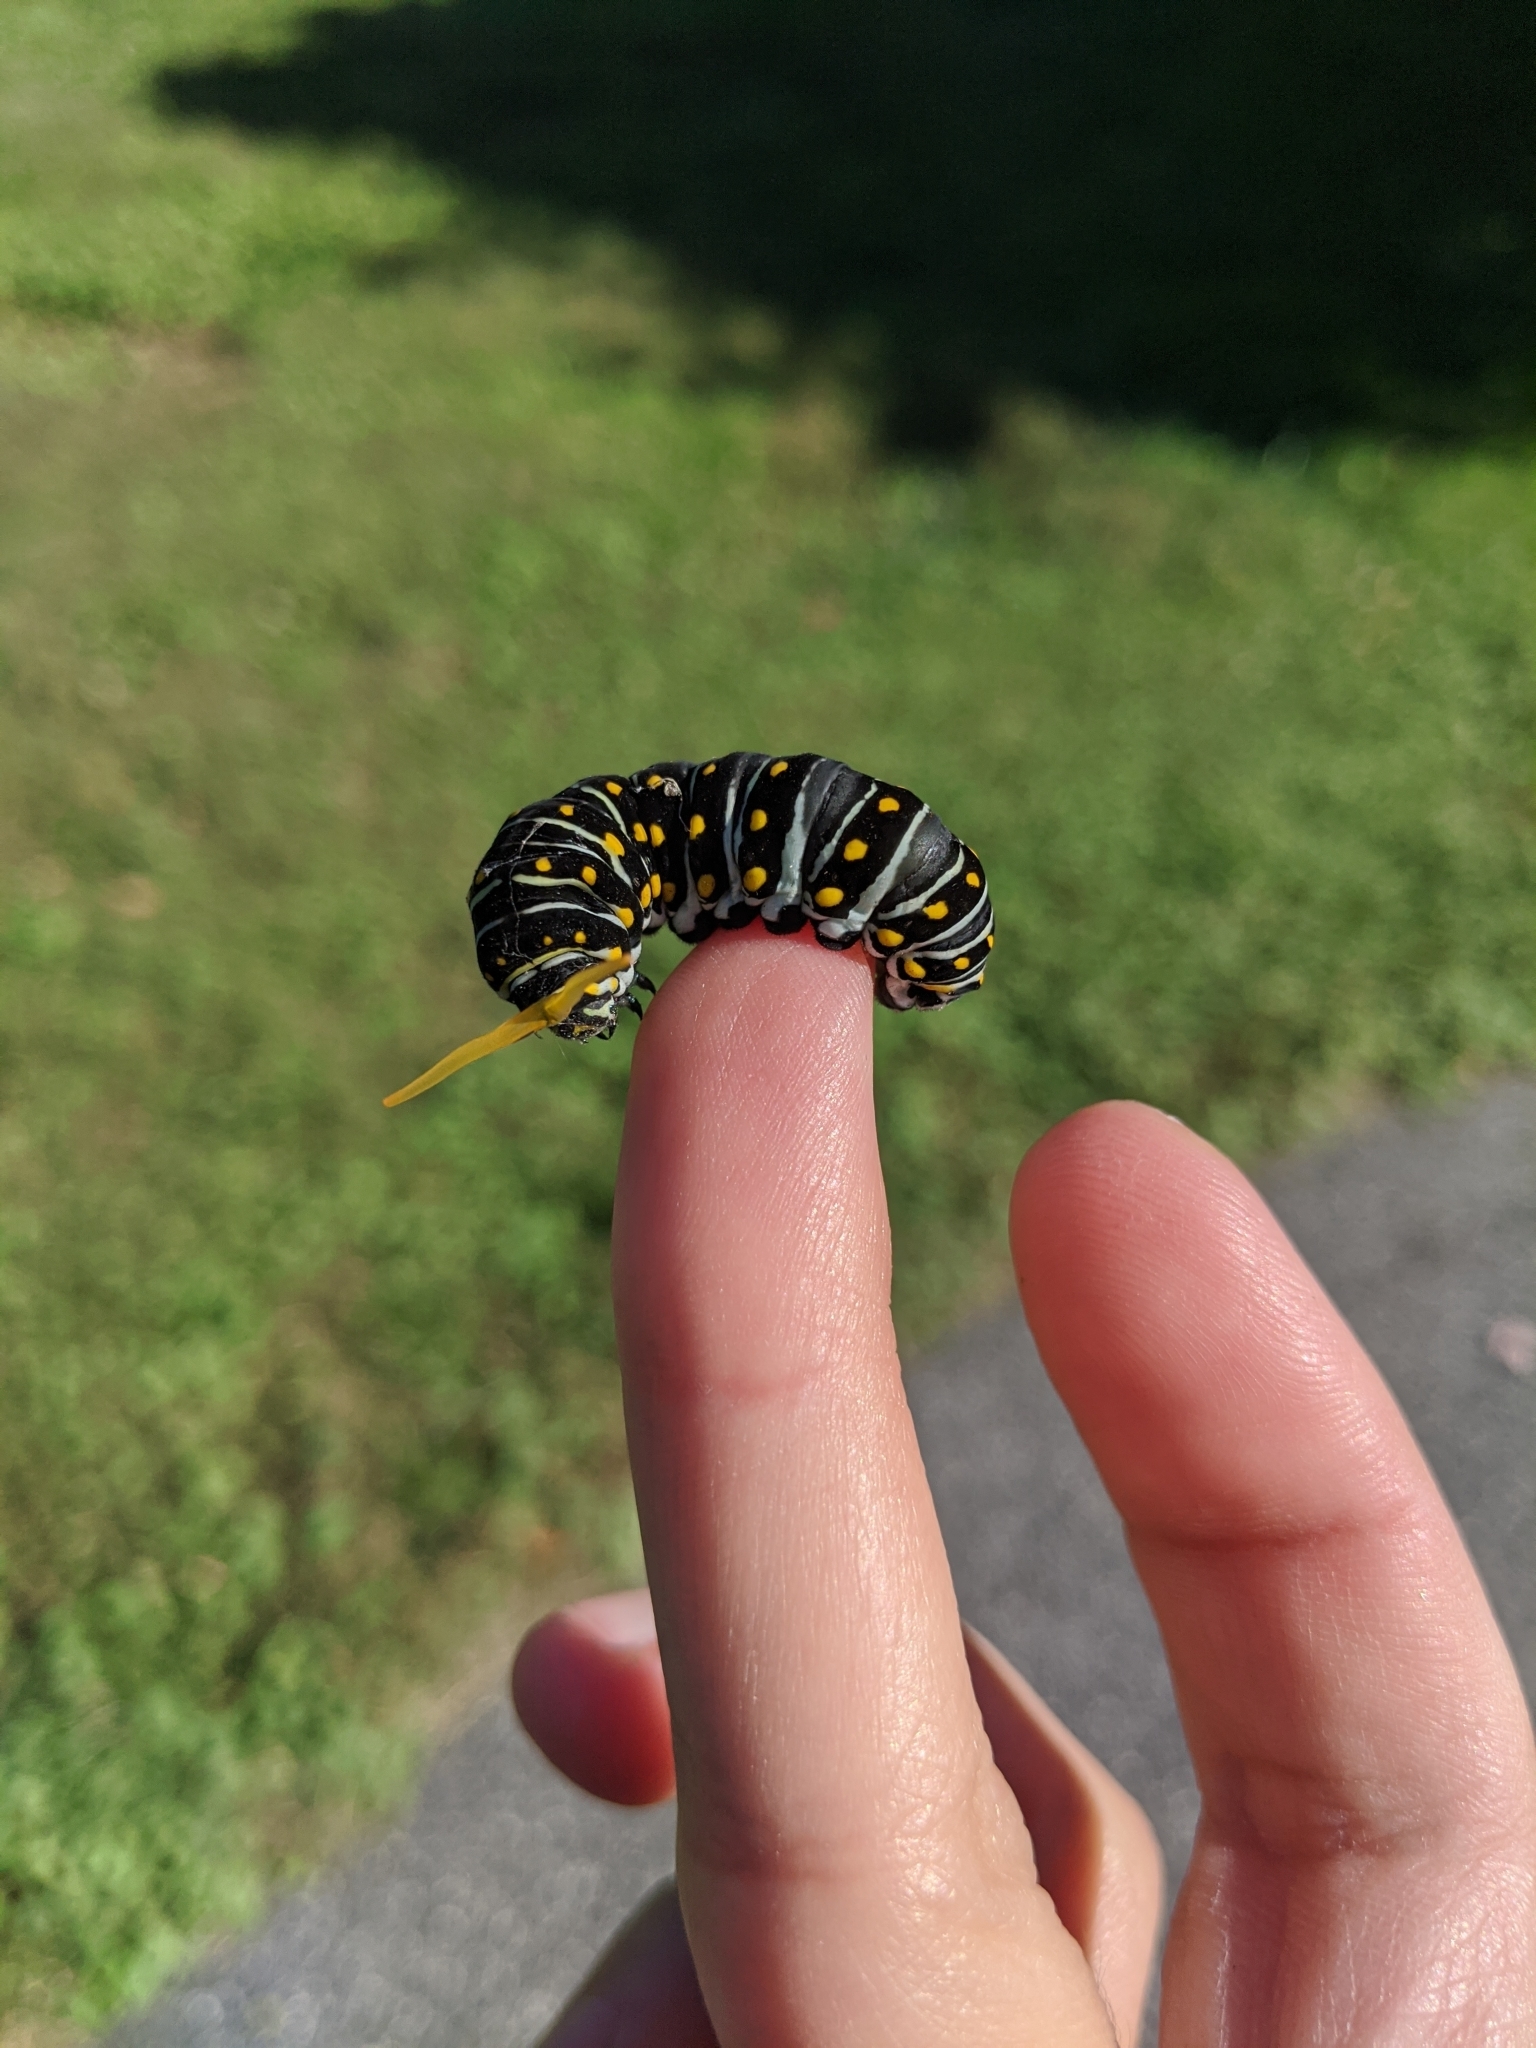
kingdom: Animalia
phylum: Arthropoda
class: Insecta
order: Lepidoptera
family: Papilionidae
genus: Papilio
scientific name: Papilio polyxenes
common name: Black swallowtail
